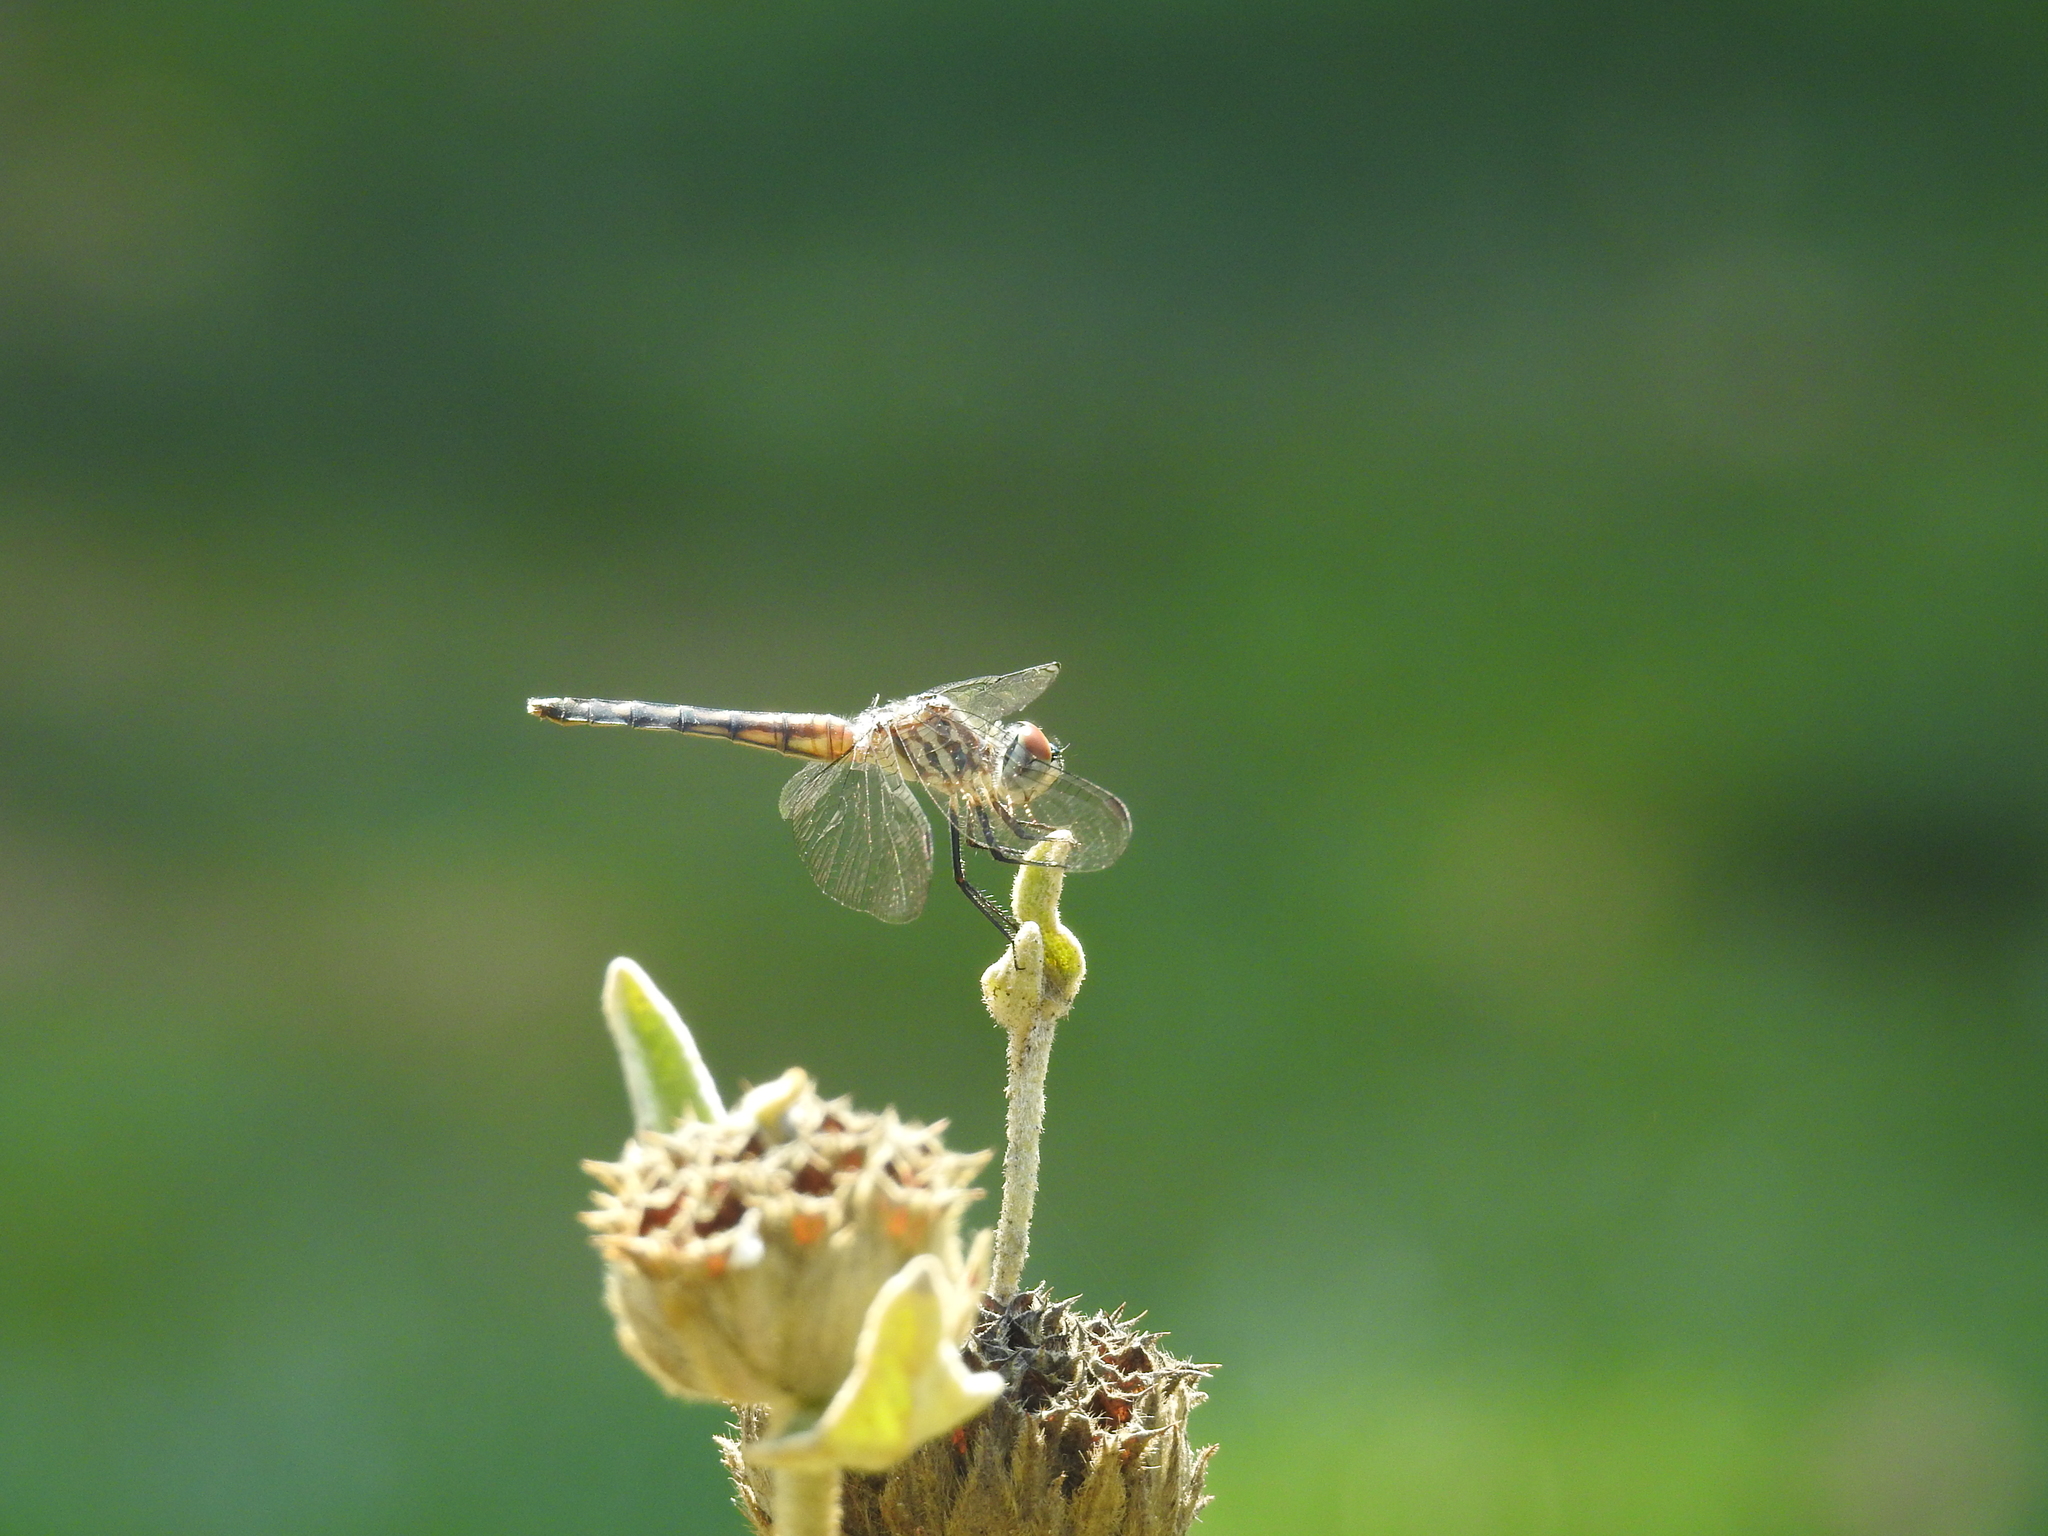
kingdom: Animalia
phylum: Arthropoda
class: Insecta
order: Odonata
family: Libellulidae
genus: Pachydiplax
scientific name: Pachydiplax longipennis
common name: Blue dasher
